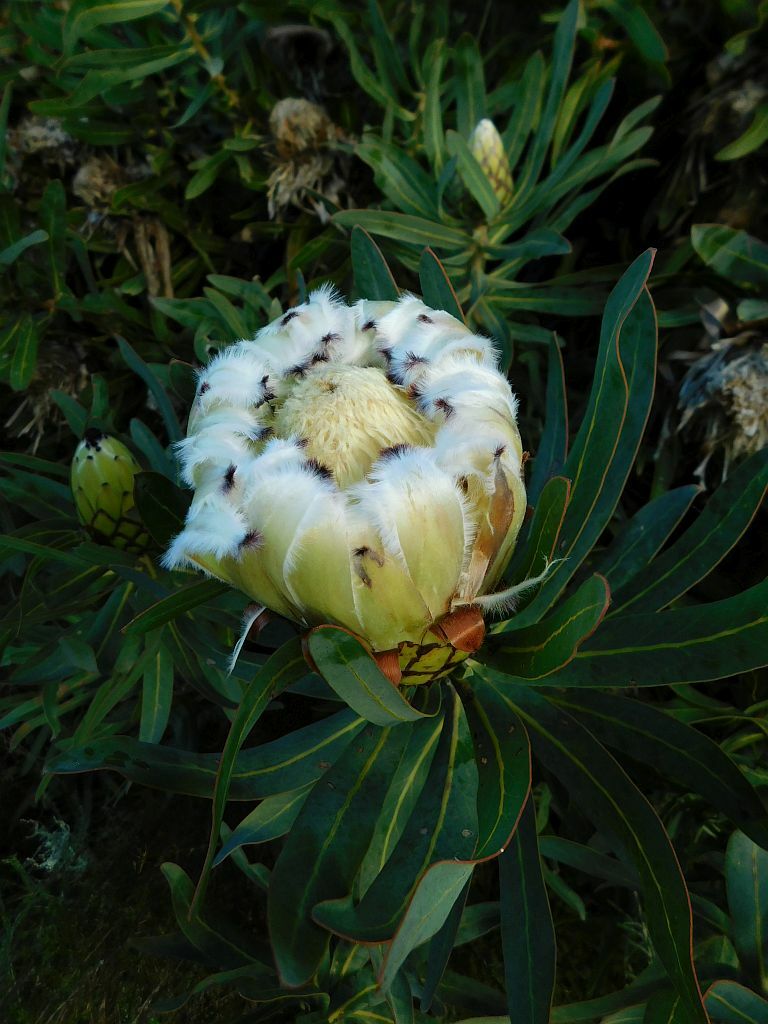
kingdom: Plantae
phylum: Tracheophyta
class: Magnoliopsida
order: Proteales
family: Proteaceae
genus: Protea
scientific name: Protea neriifolia
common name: Blue sugarbush
